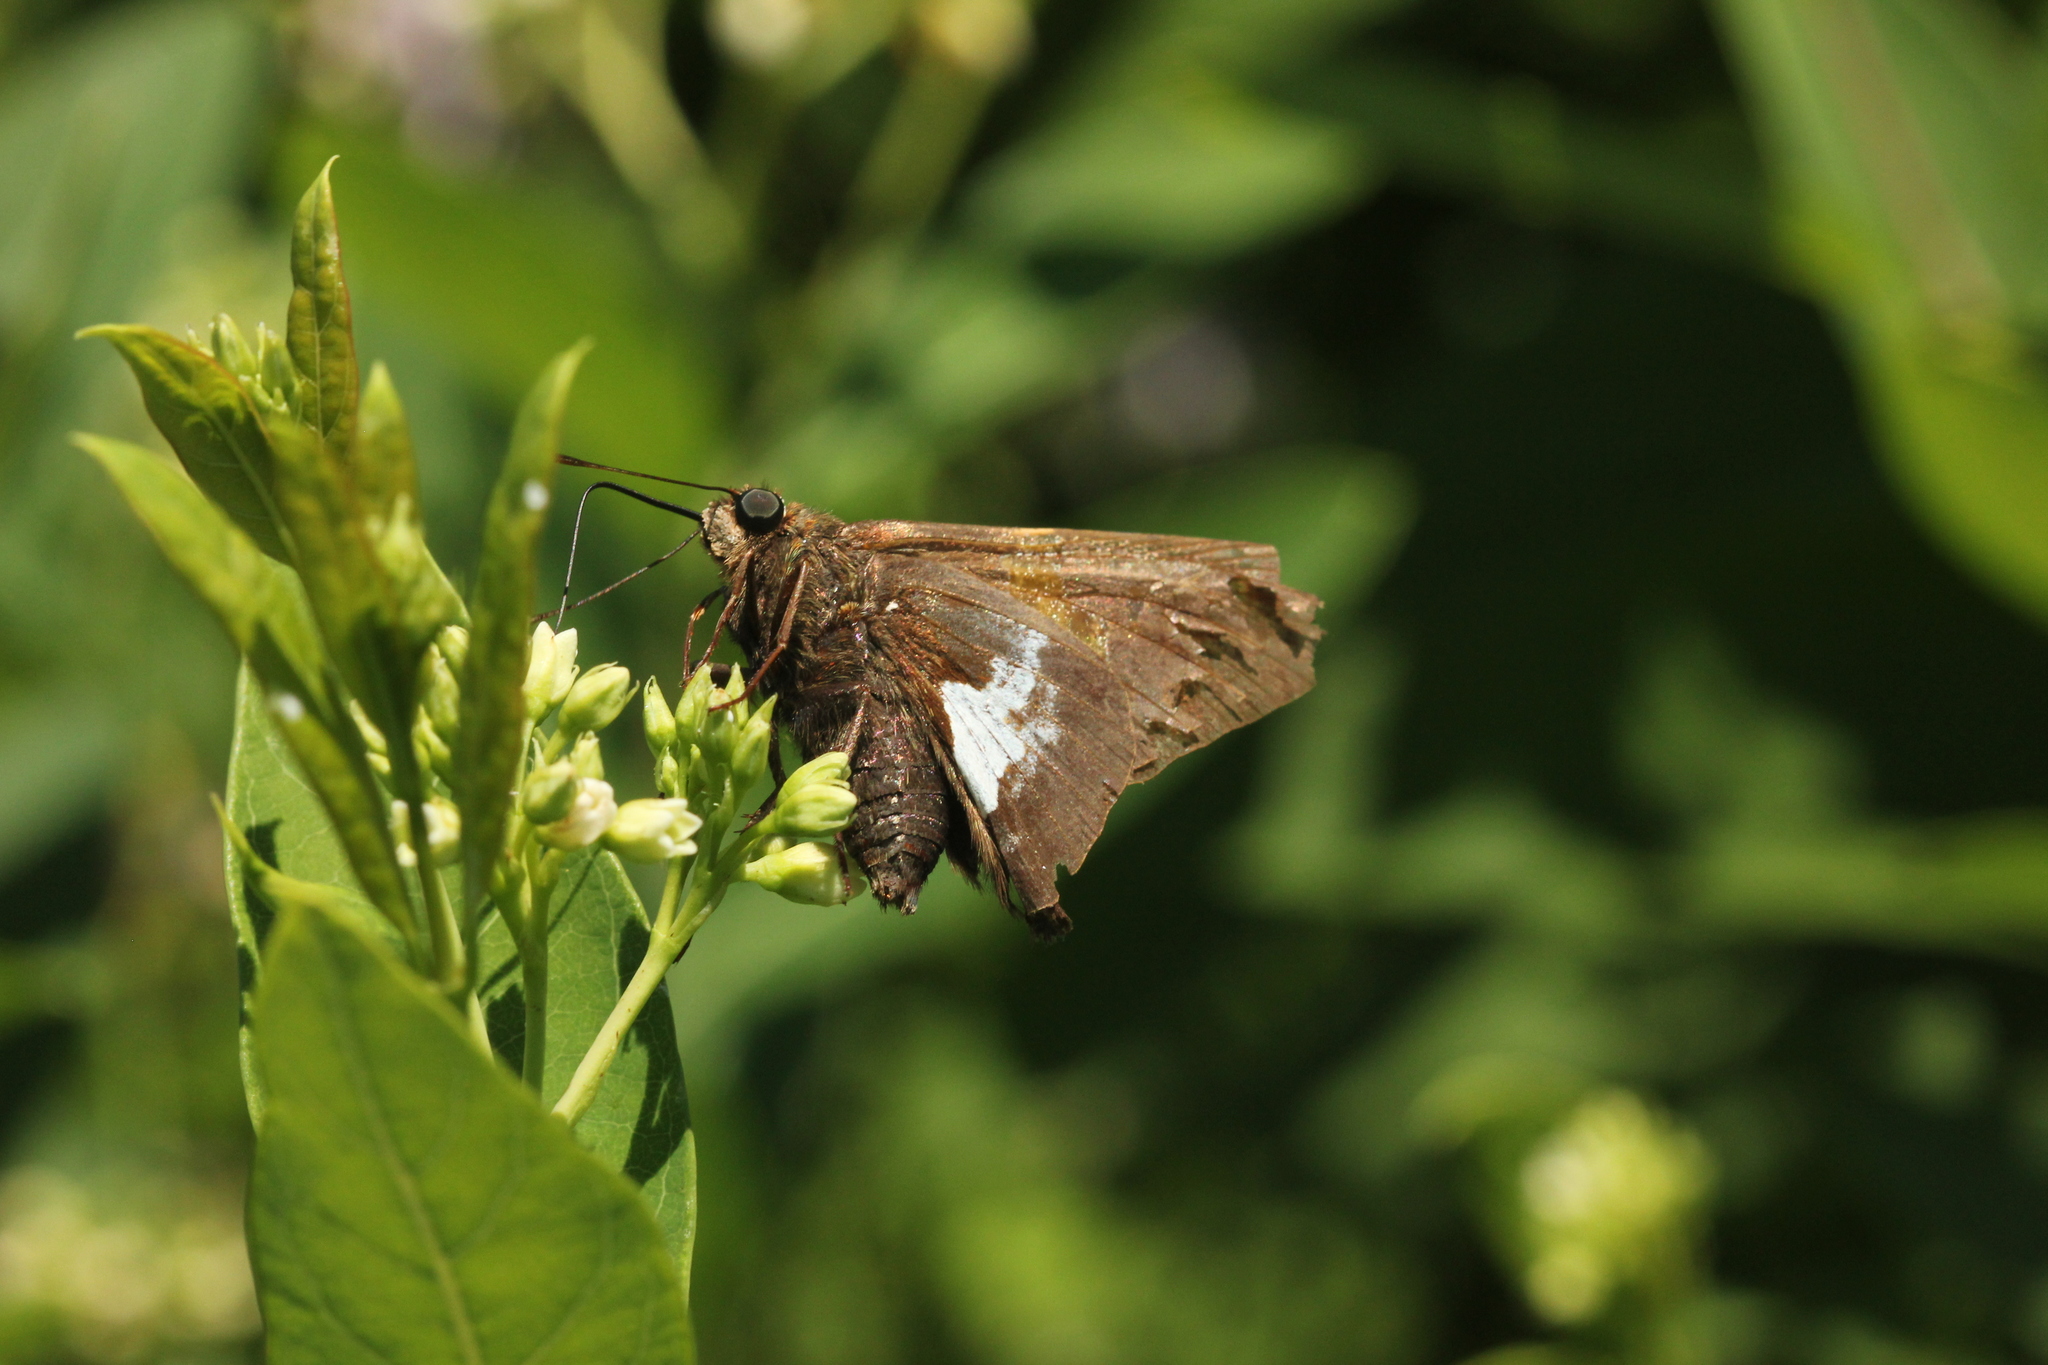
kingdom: Animalia
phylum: Arthropoda
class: Insecta
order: Lepidoptera
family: Hesperiidae
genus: Epargyreus
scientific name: Epargyreus clarus
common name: Silver-spotted skipper
